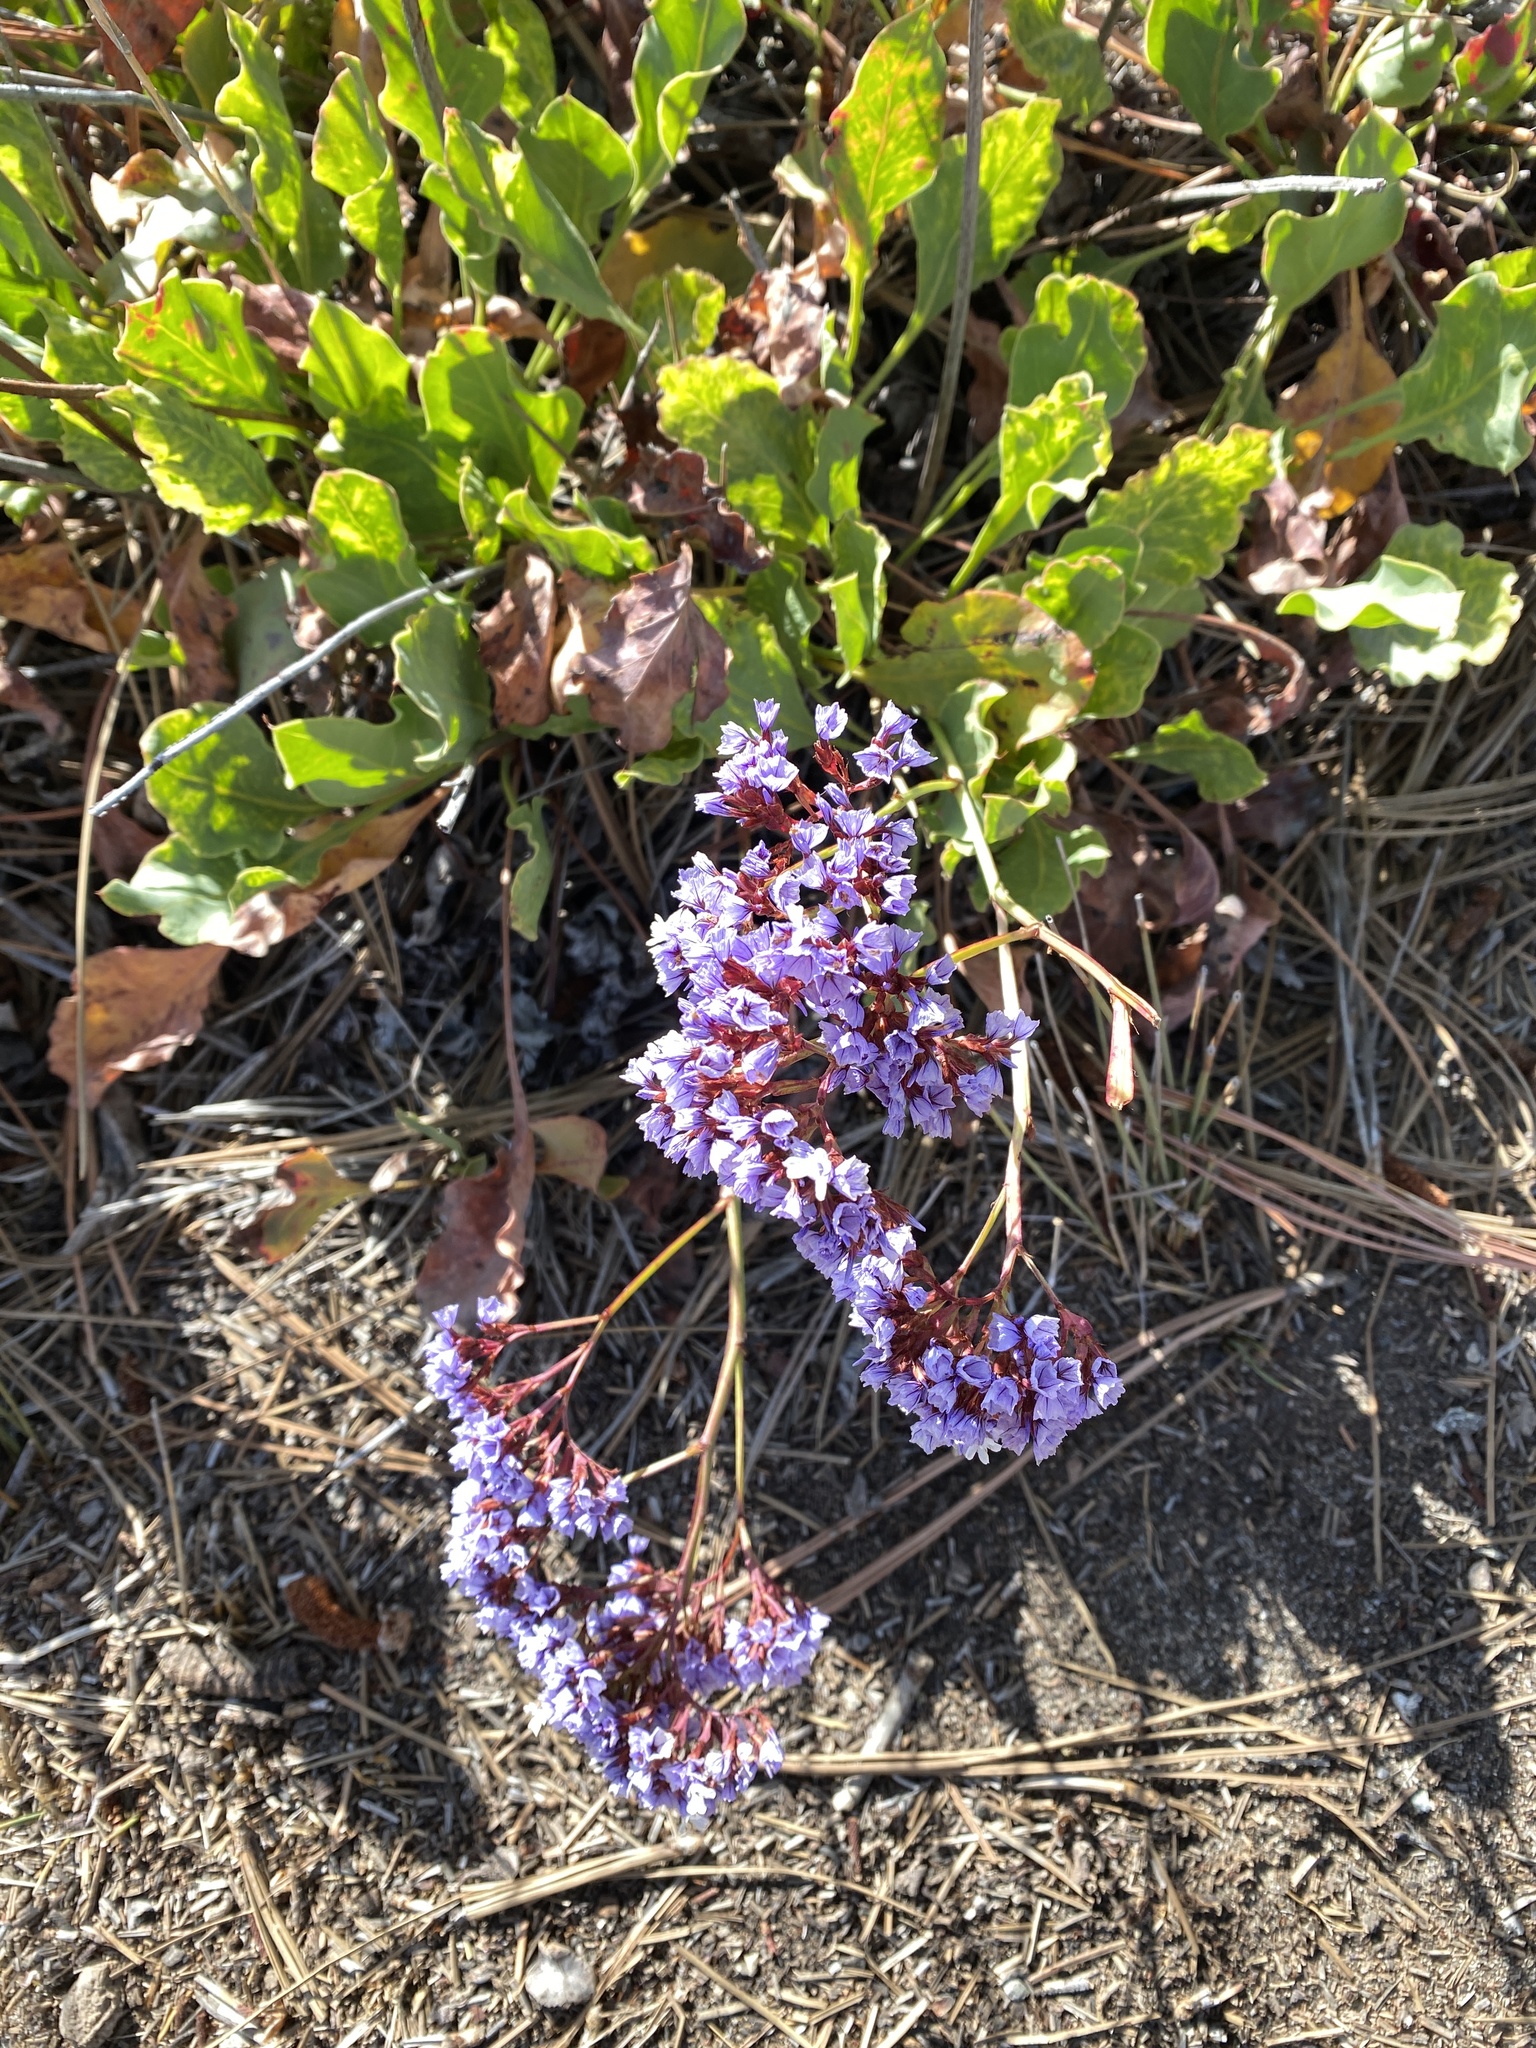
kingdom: Plantae
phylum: Tracheophyta
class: Magnoliopsida
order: Caryophyllales
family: Plumbaginaceae
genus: Limonium
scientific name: Limonium perezii
